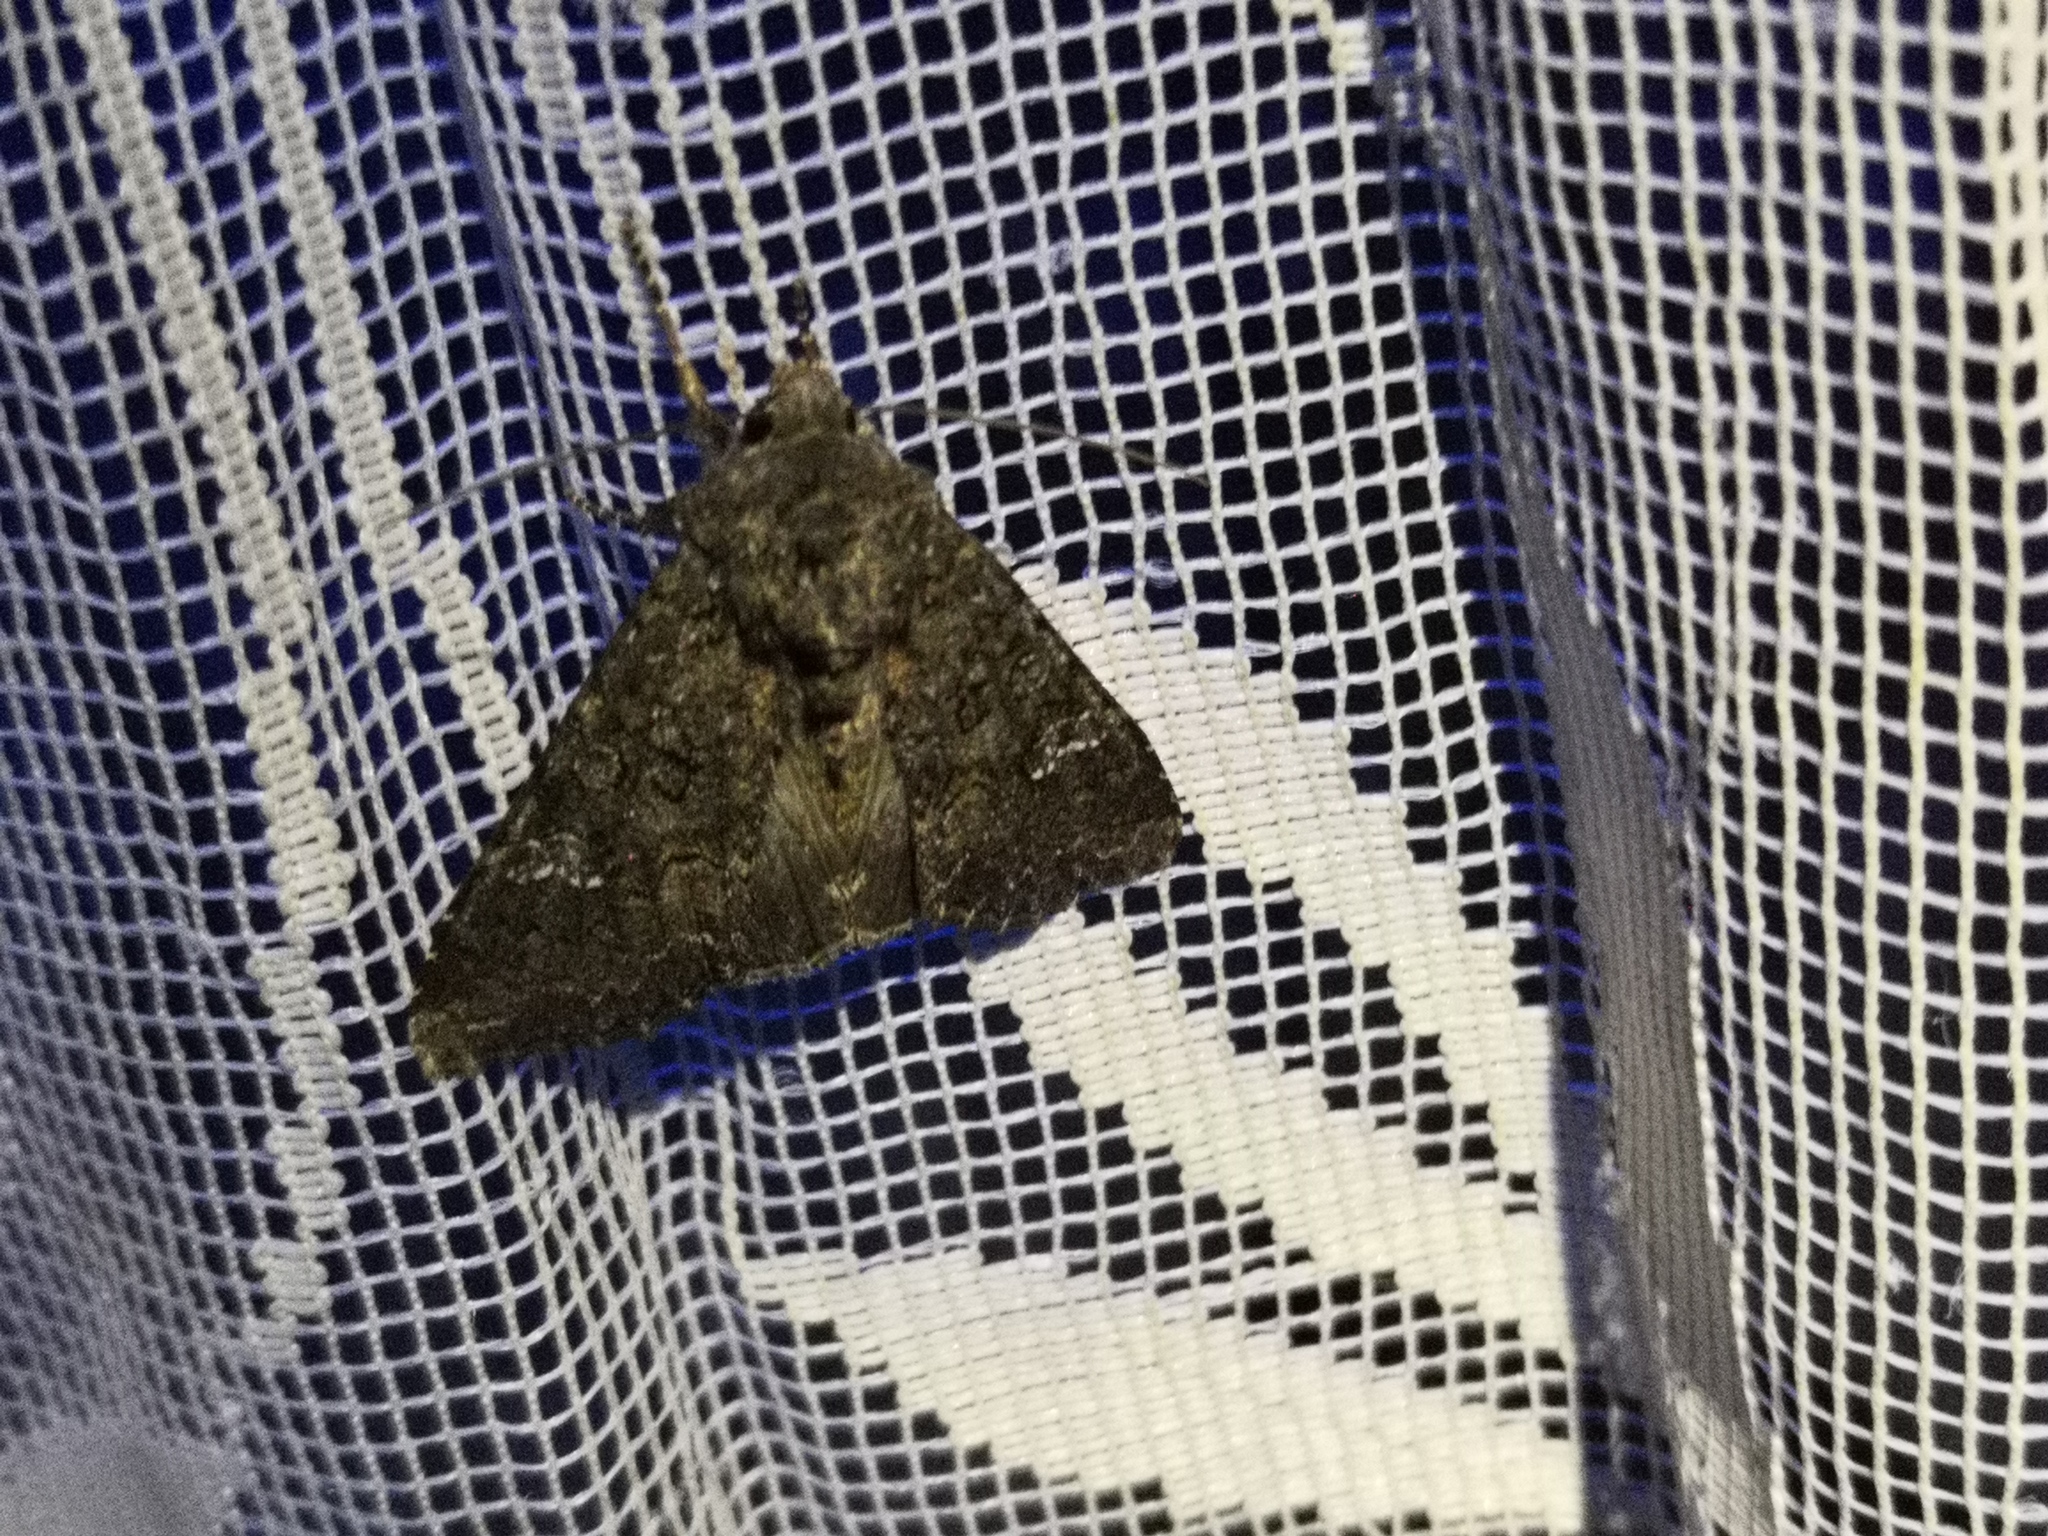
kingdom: Animalia
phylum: Arthropoda
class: Insecta
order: Lepidoptera
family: Noctuidae
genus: Mamestra
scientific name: Mamestra brassicae
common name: Cabbage moth
